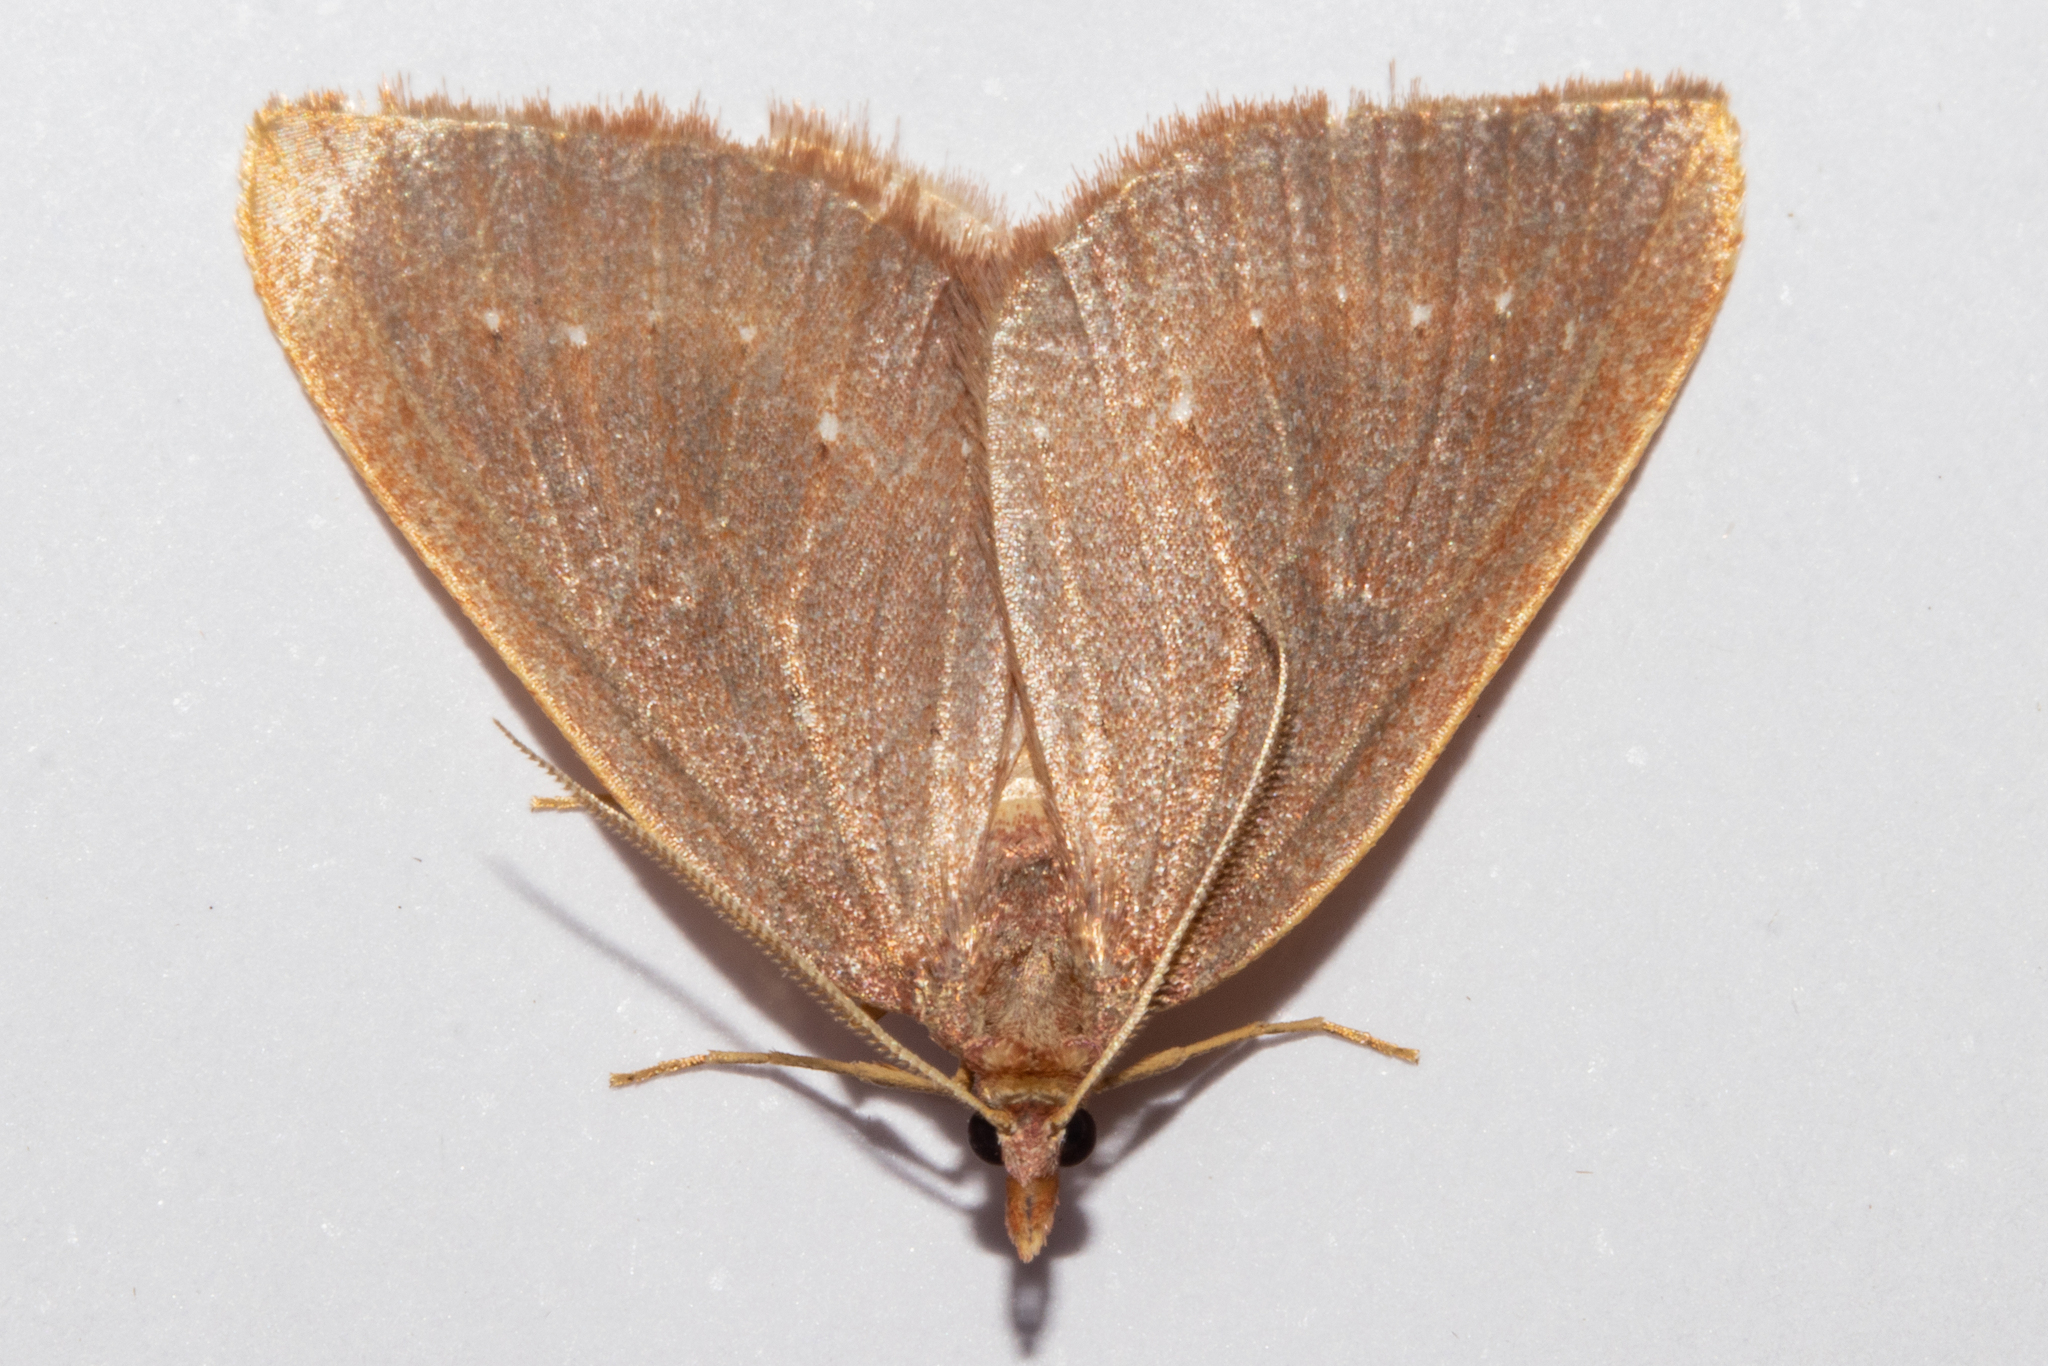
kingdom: Animalia
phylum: Arthropoda
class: Insecta
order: Lepidoptera
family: Geometridae
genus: Xanthorhoe
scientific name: Xanthorhoe occulta
